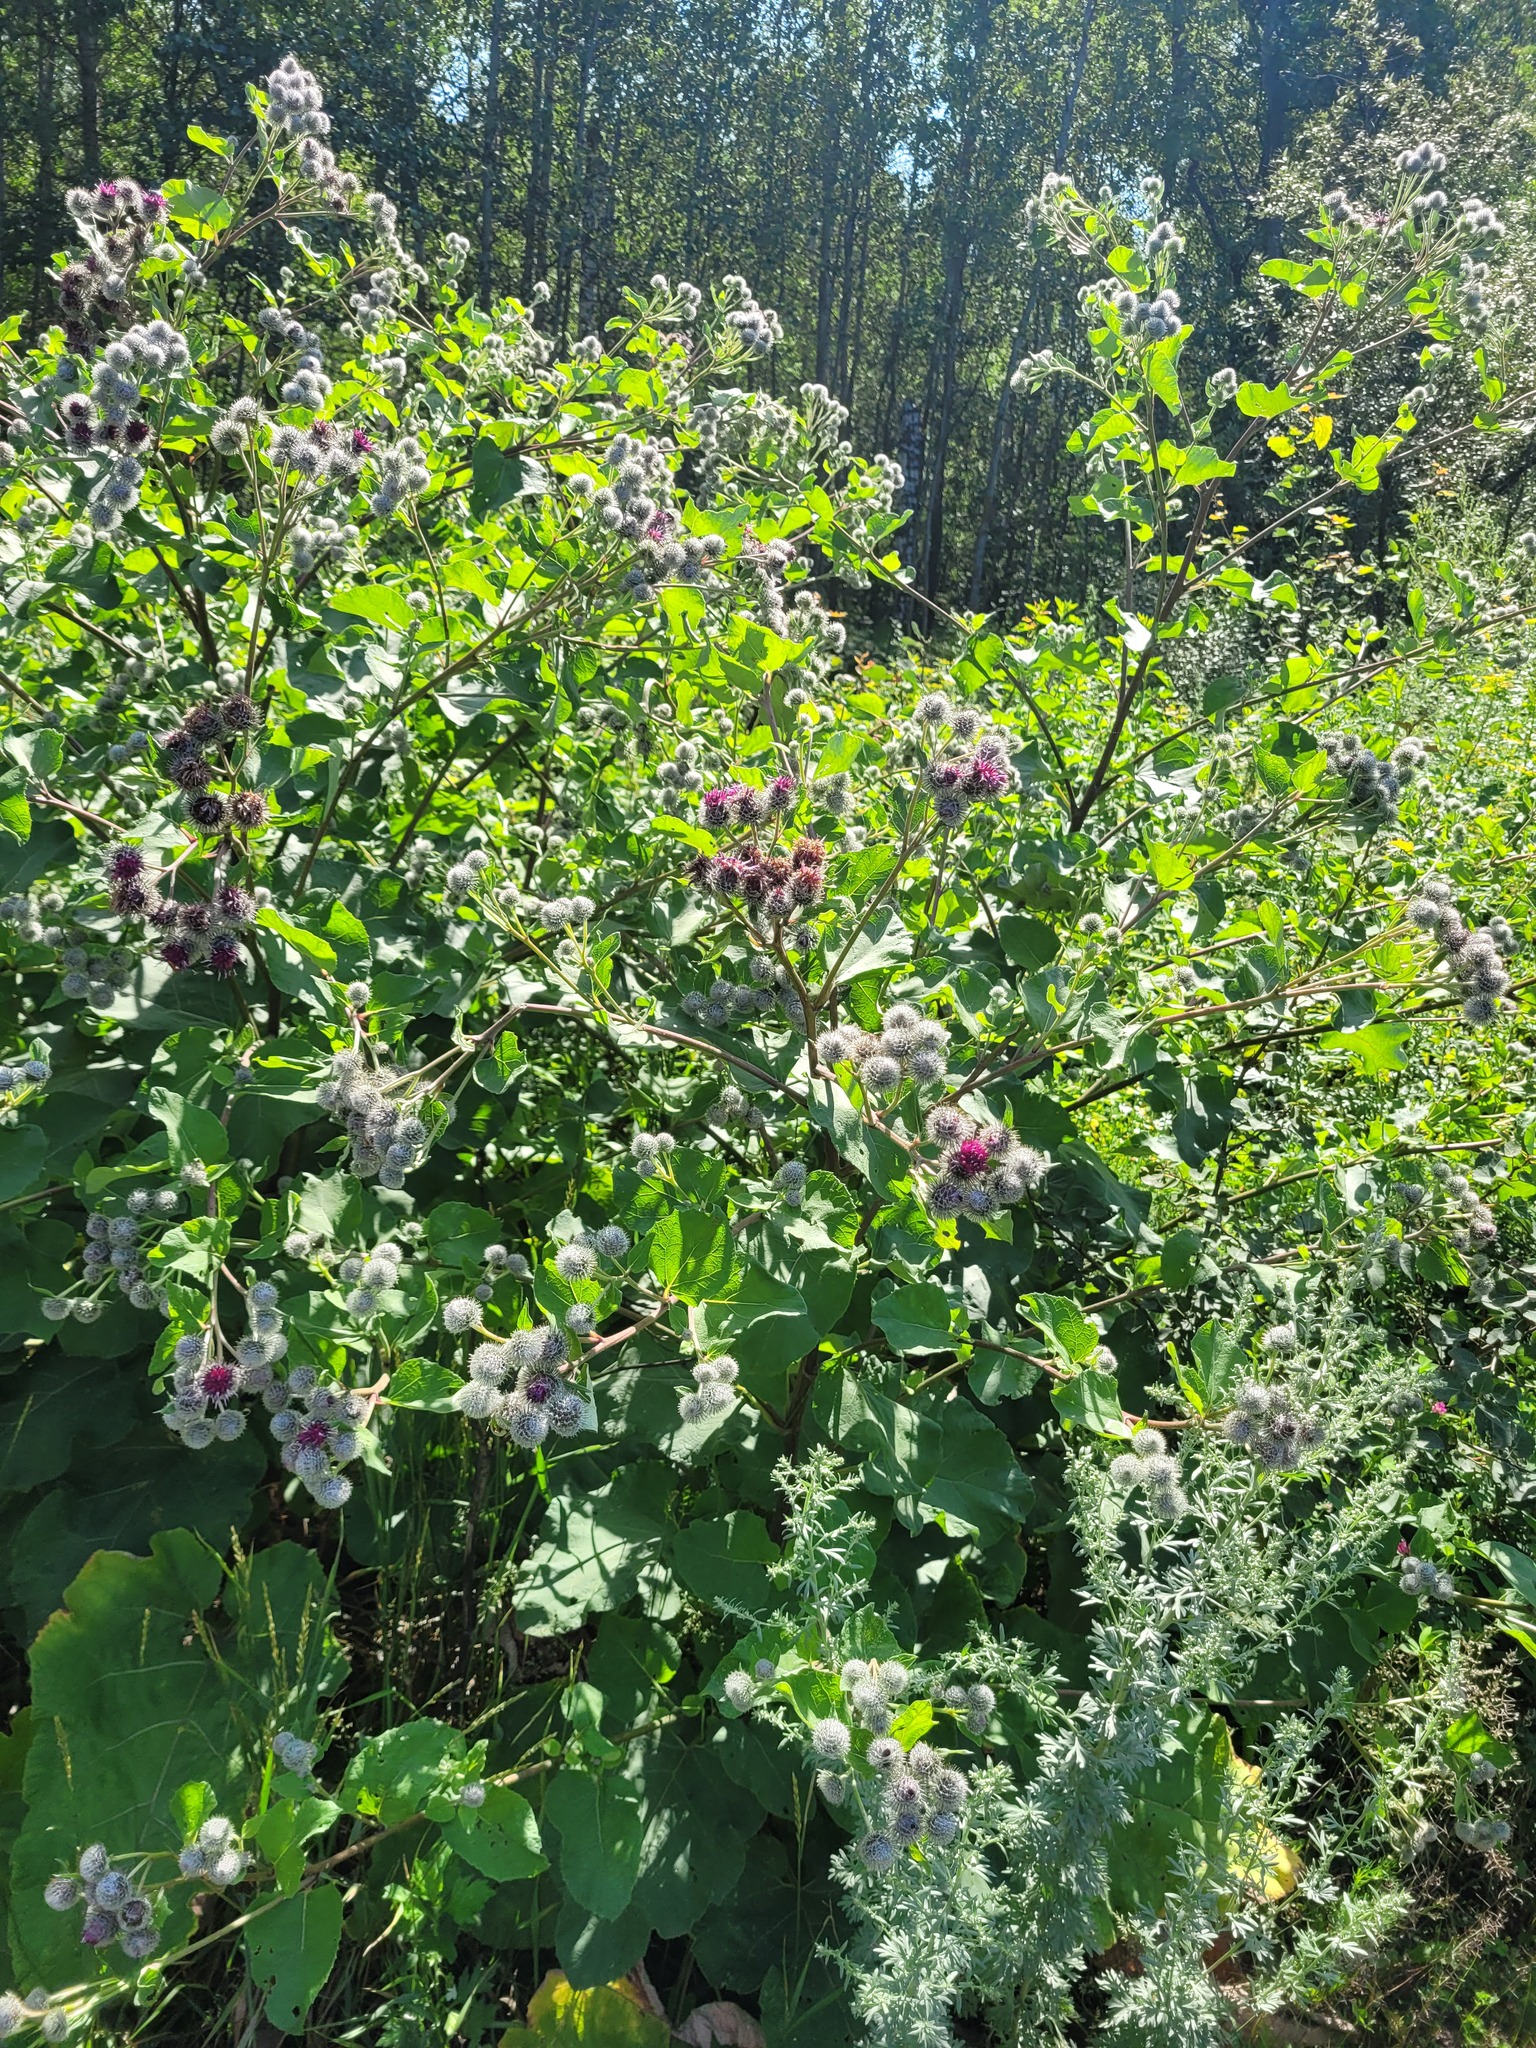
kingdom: Plantae
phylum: Tracheophyta
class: Magnoliopsida
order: Asterales
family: Asteraceae
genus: Arctium
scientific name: Arctium tomentosum
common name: Woolly burdock
